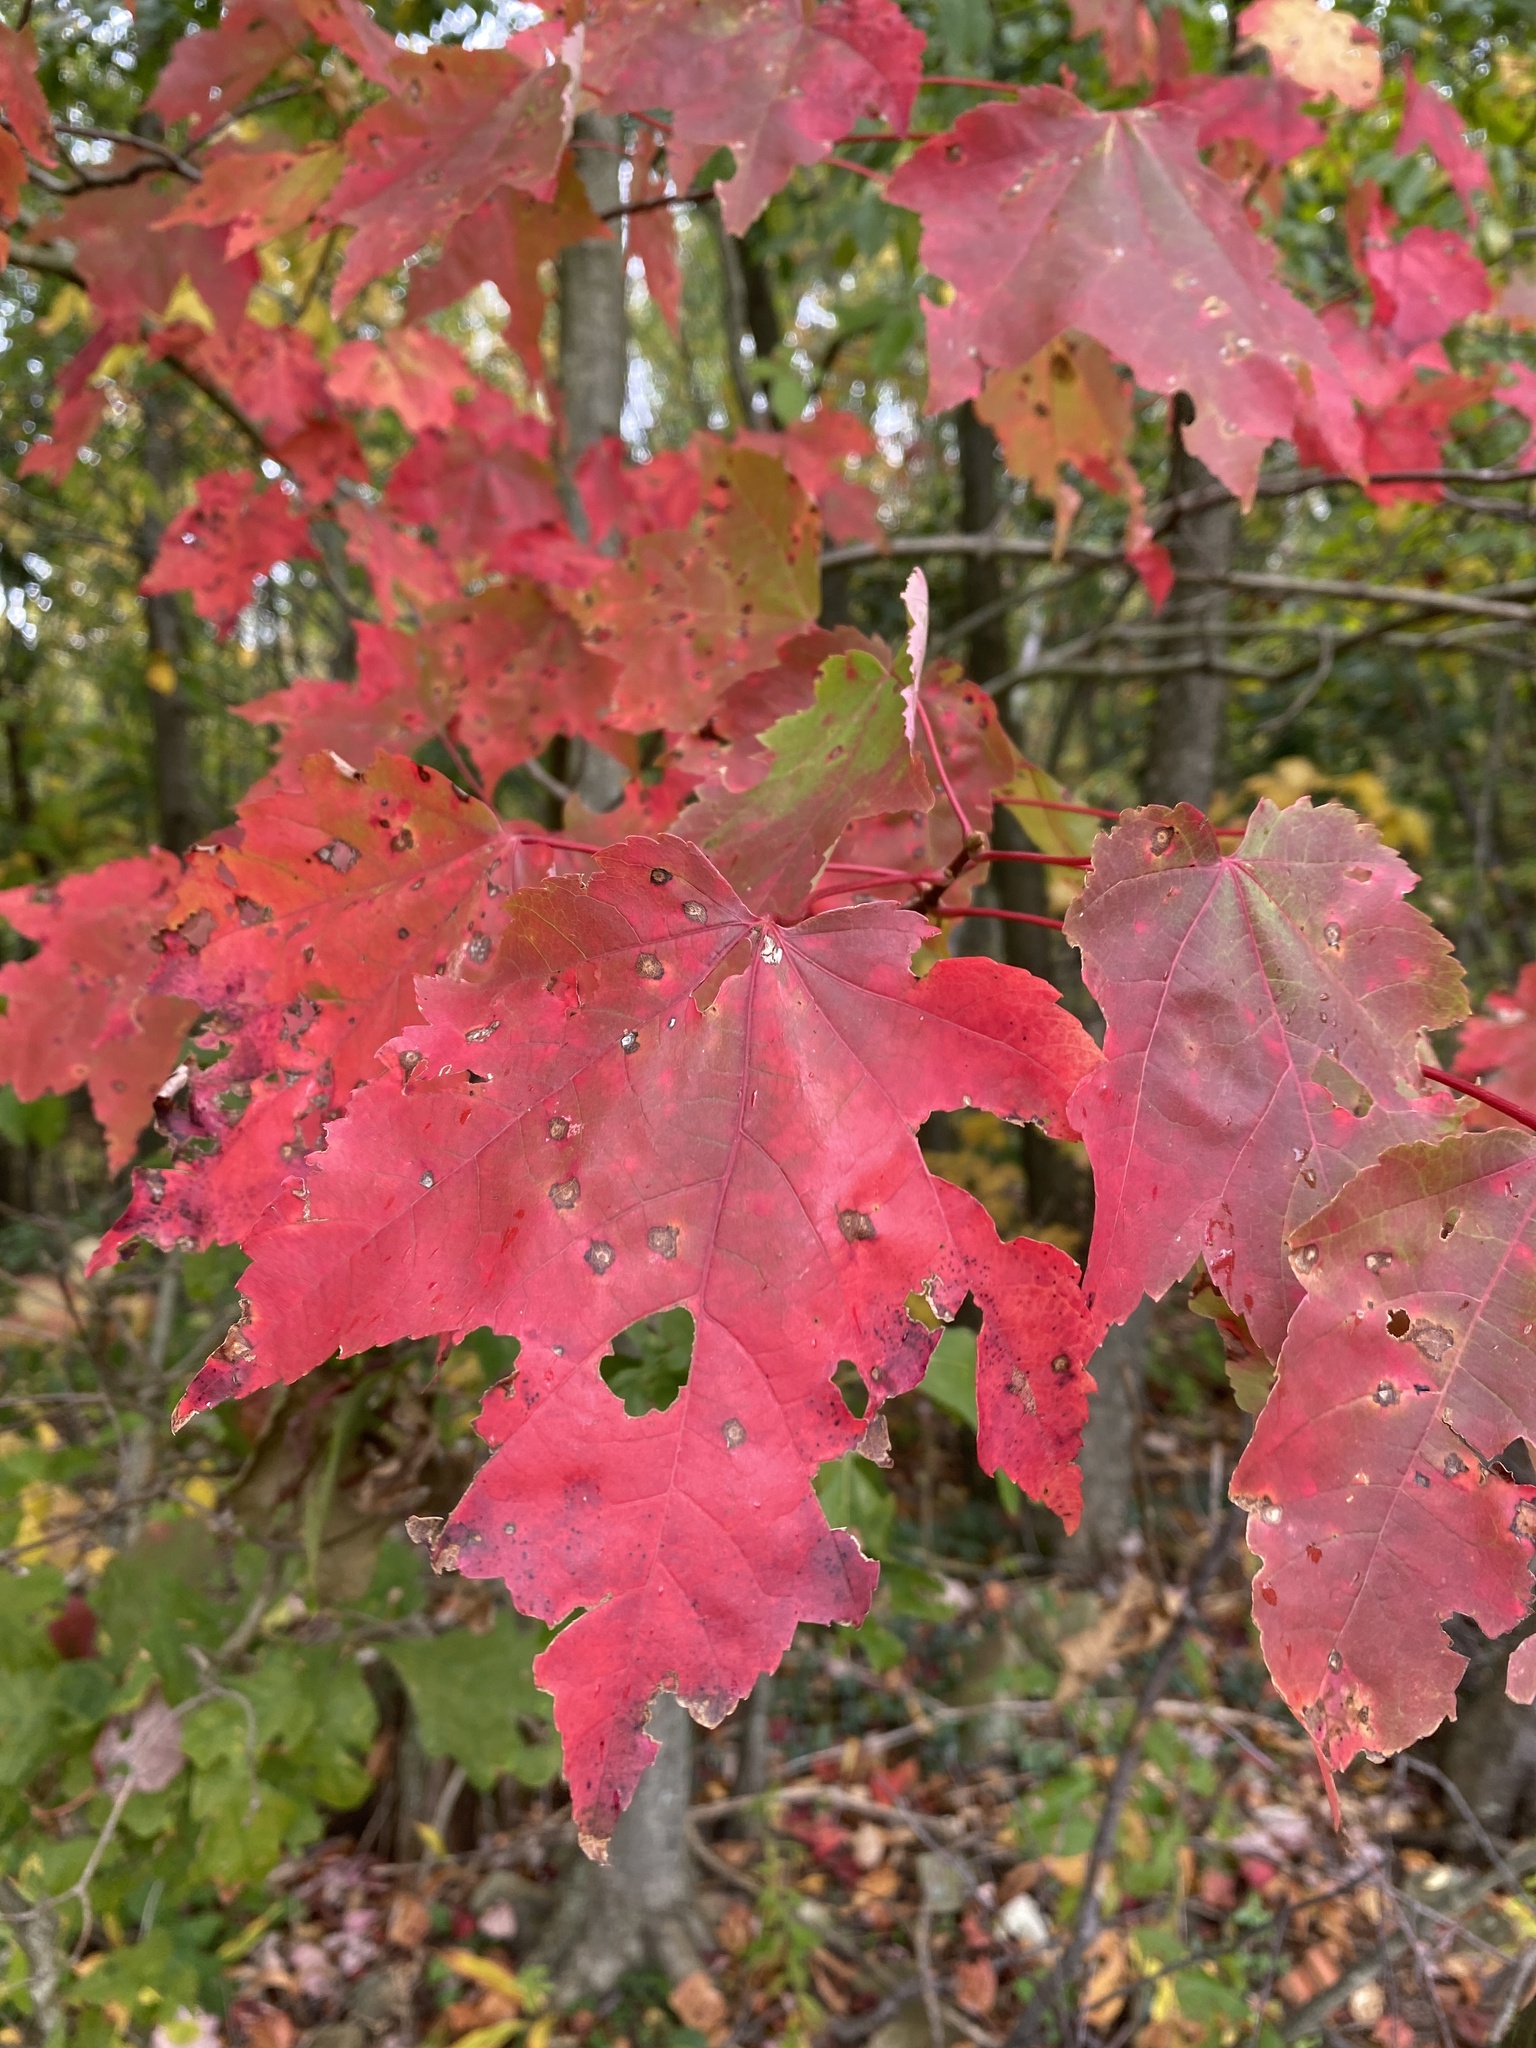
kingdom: Plantae
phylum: Tracheophyta
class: Magnoliopsida
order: Sapindales
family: Sapindaceae
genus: Acer
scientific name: Acer rubrum
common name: Red maple
